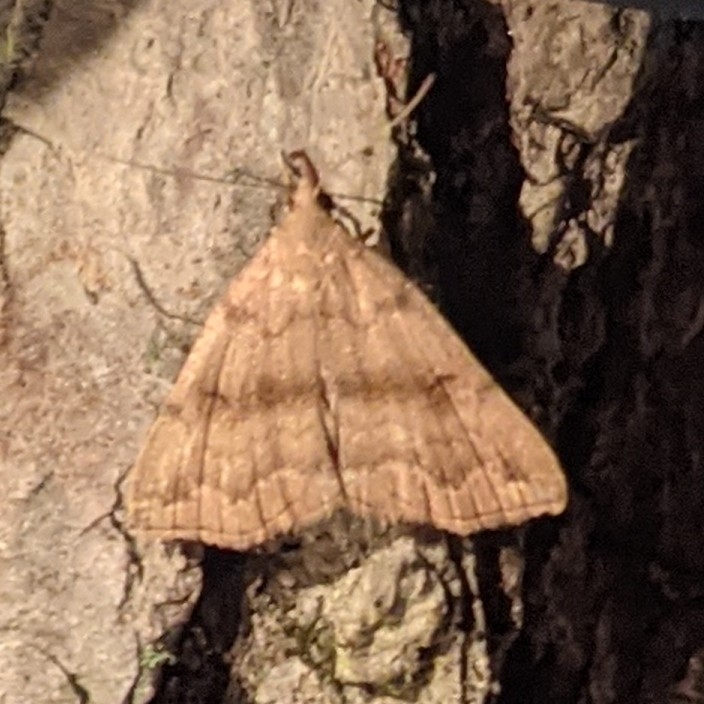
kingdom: Animalia
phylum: Arthropoda
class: Insecta
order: Lepidoptera
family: Erebidae
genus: Phalaenostola
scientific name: Phalaenostola eumelusalis
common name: Dark phalaenostola moth
